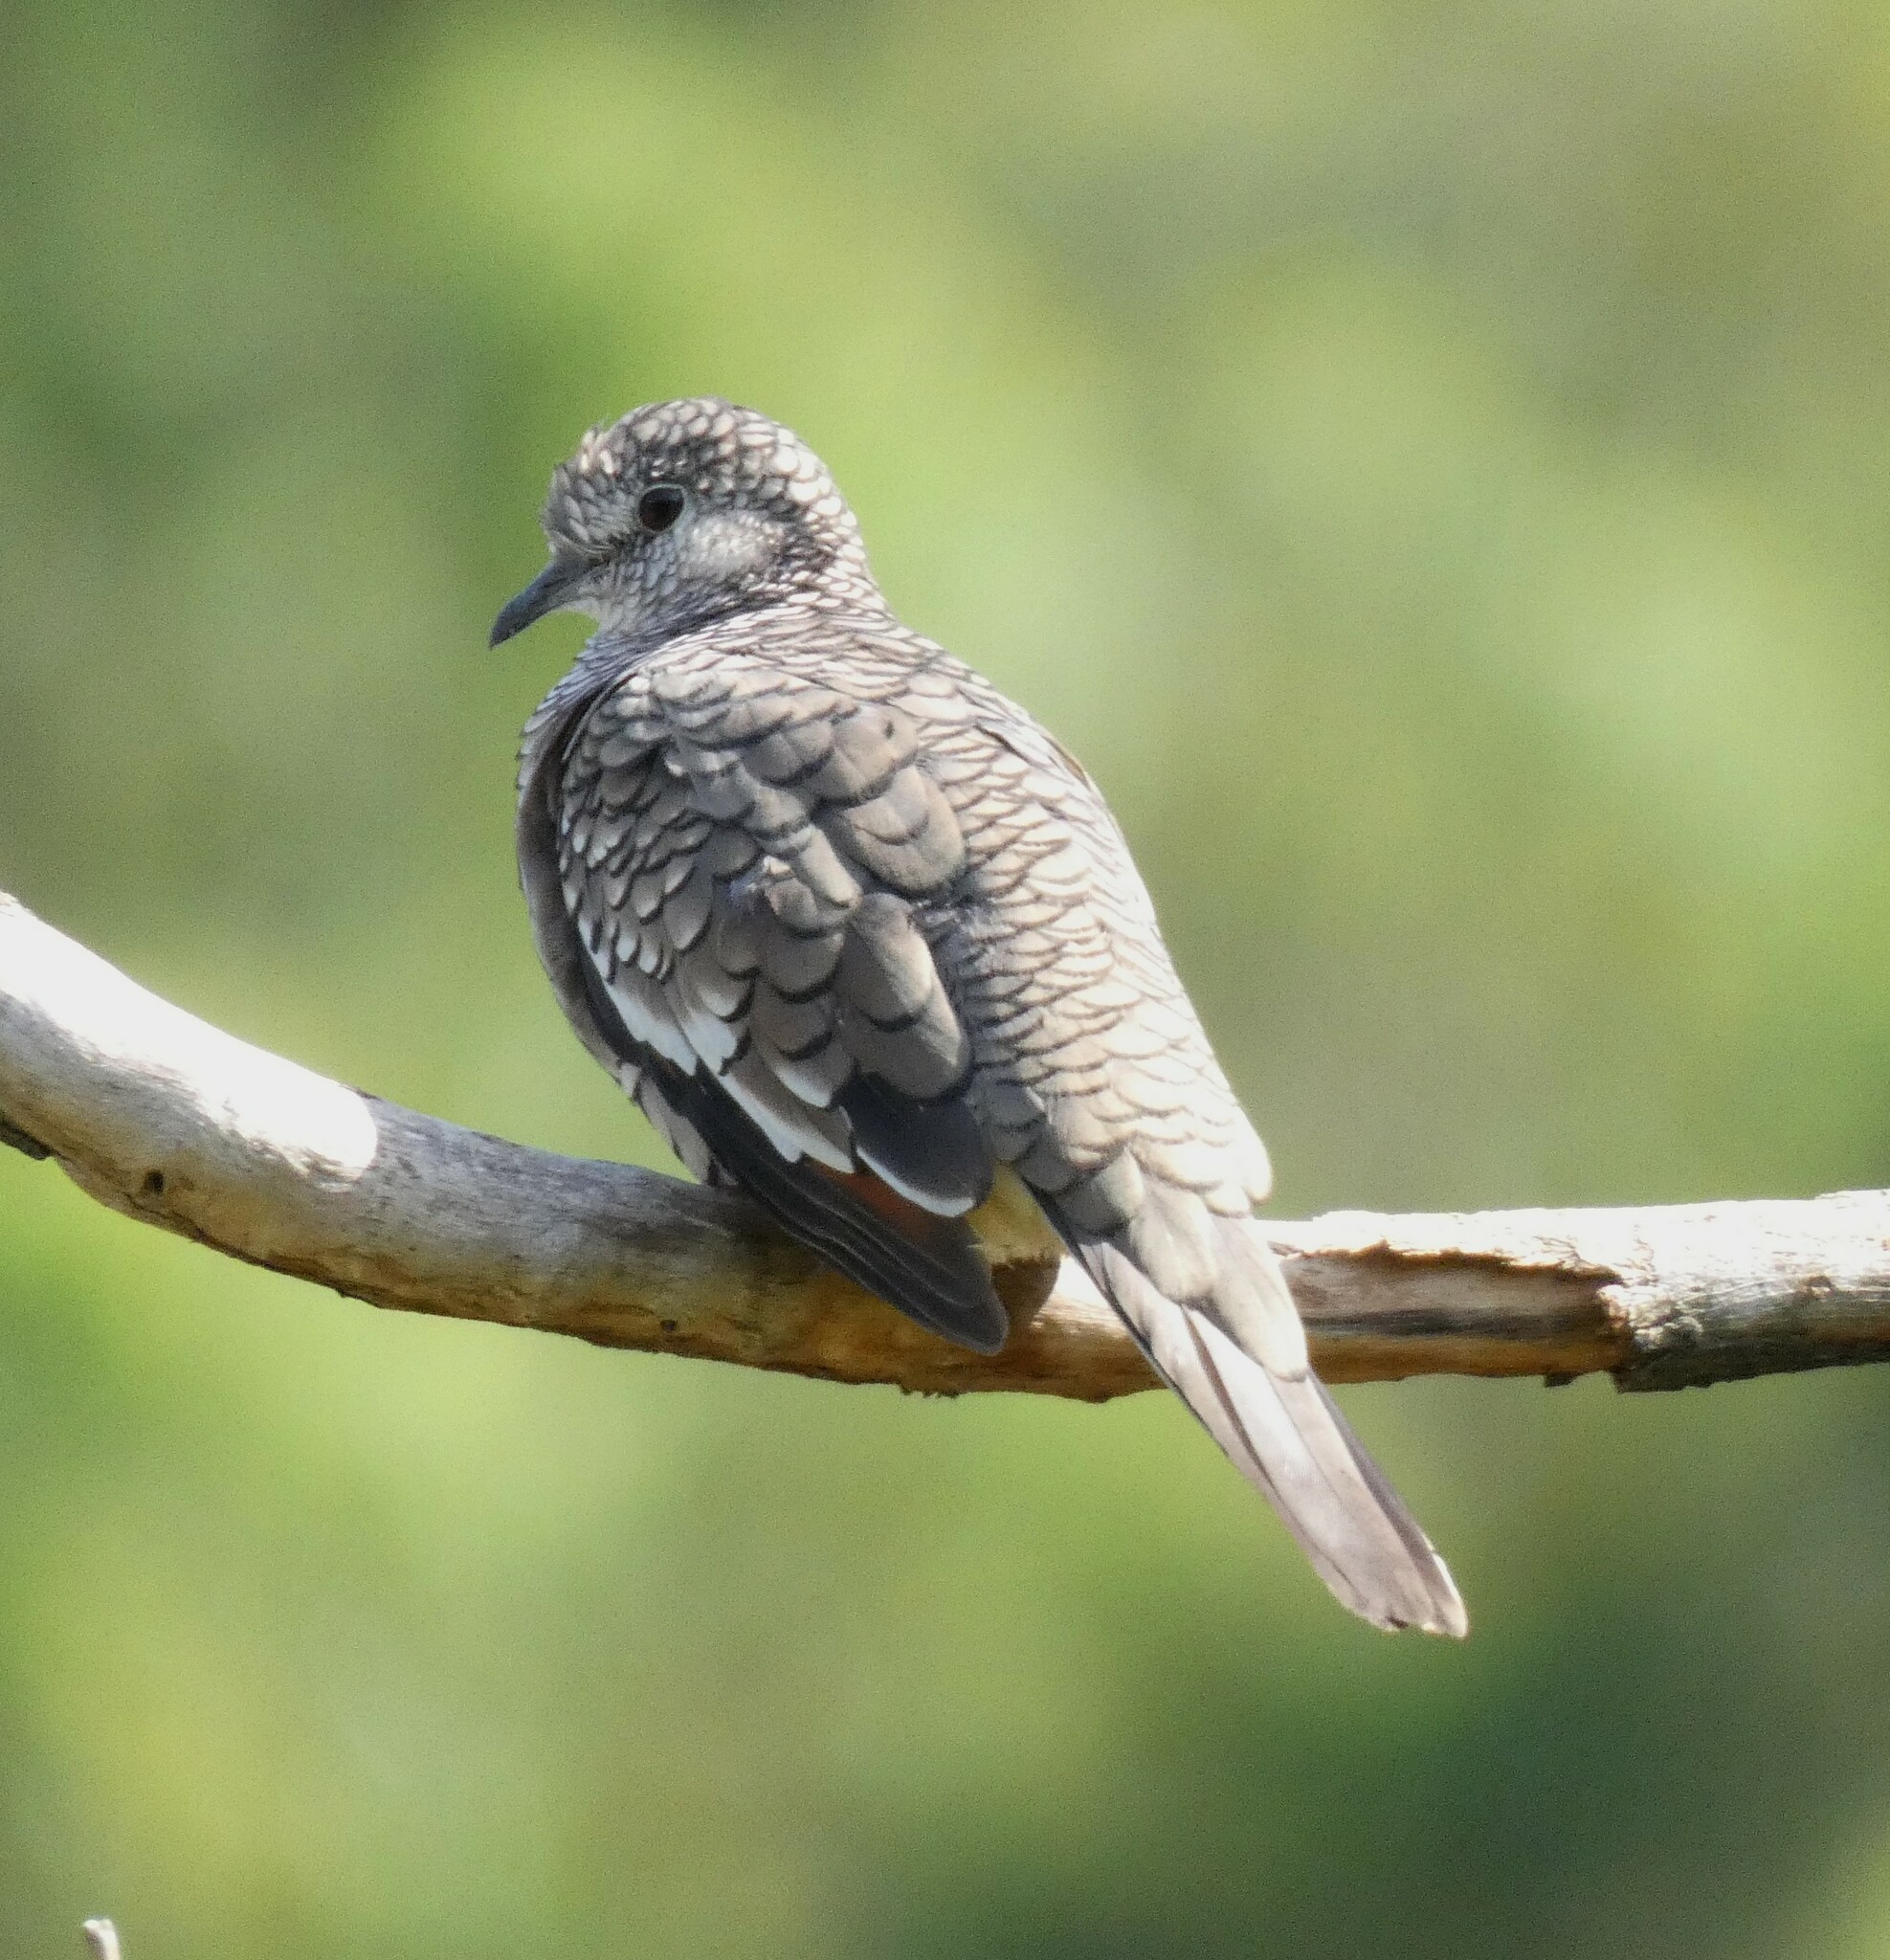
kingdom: Animalia
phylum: Chordata
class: Aves
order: Columbiformes
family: Columbidae
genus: Columbina
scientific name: Columbina squammata
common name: Scaled dove
